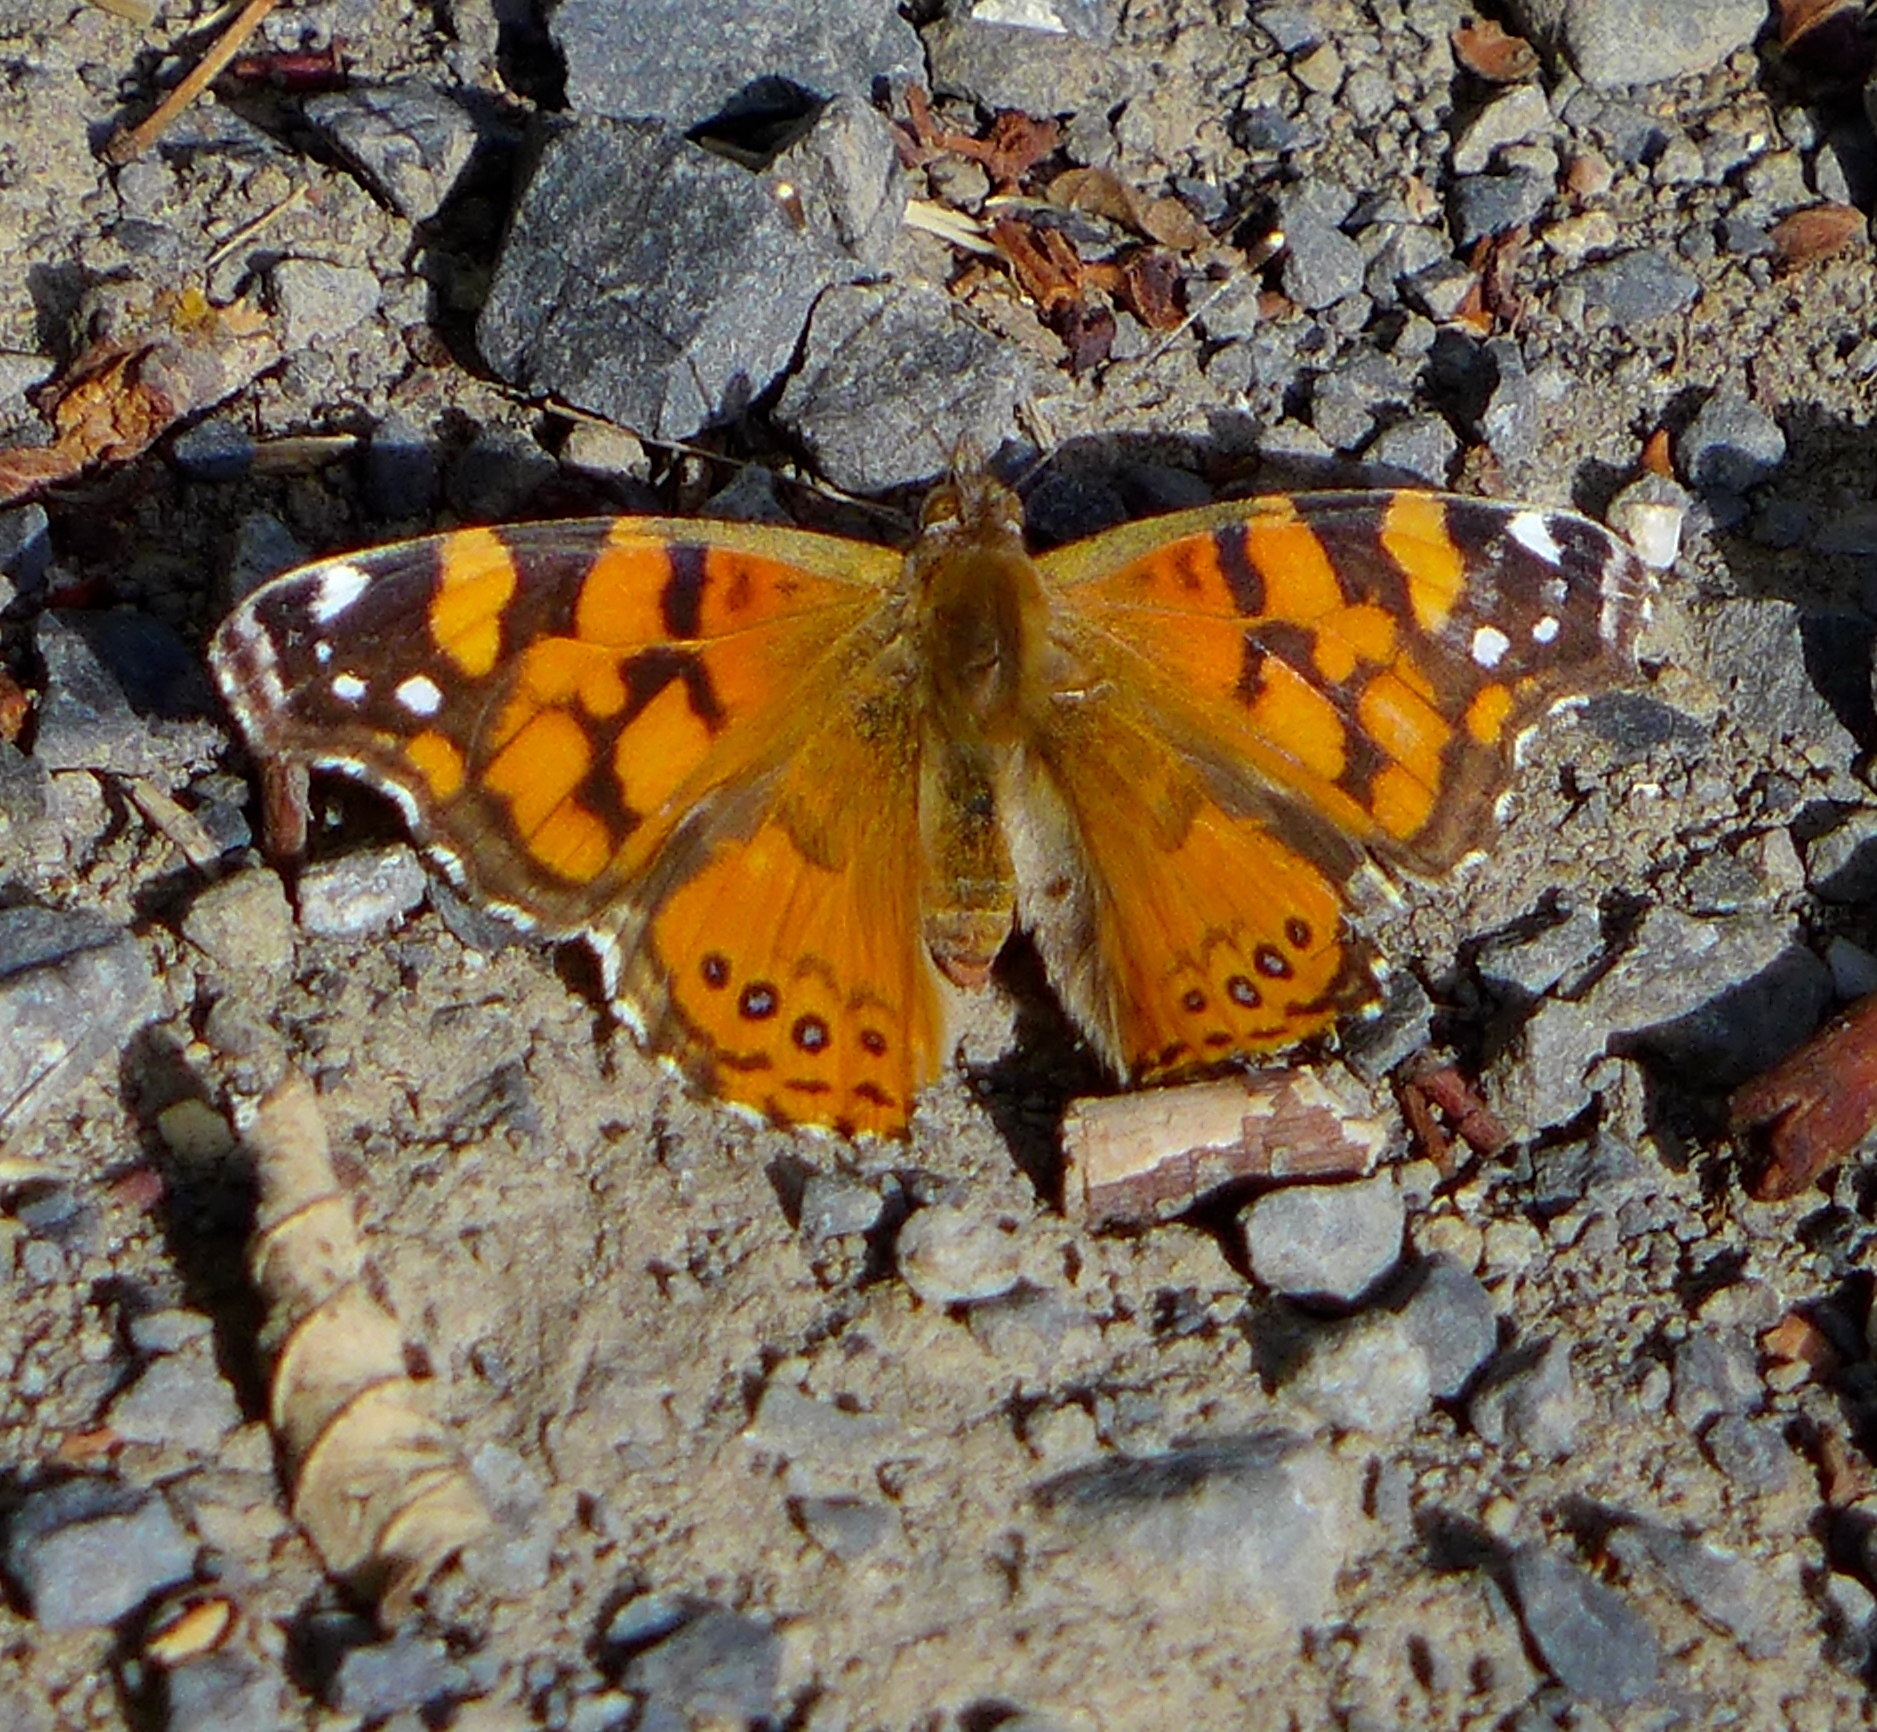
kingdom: Animalia
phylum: Arthropoda
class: Insecta
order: Lepidoptera
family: Nymphalidae
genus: Vanessa
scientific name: Vanessa annabella
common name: West coast lady
